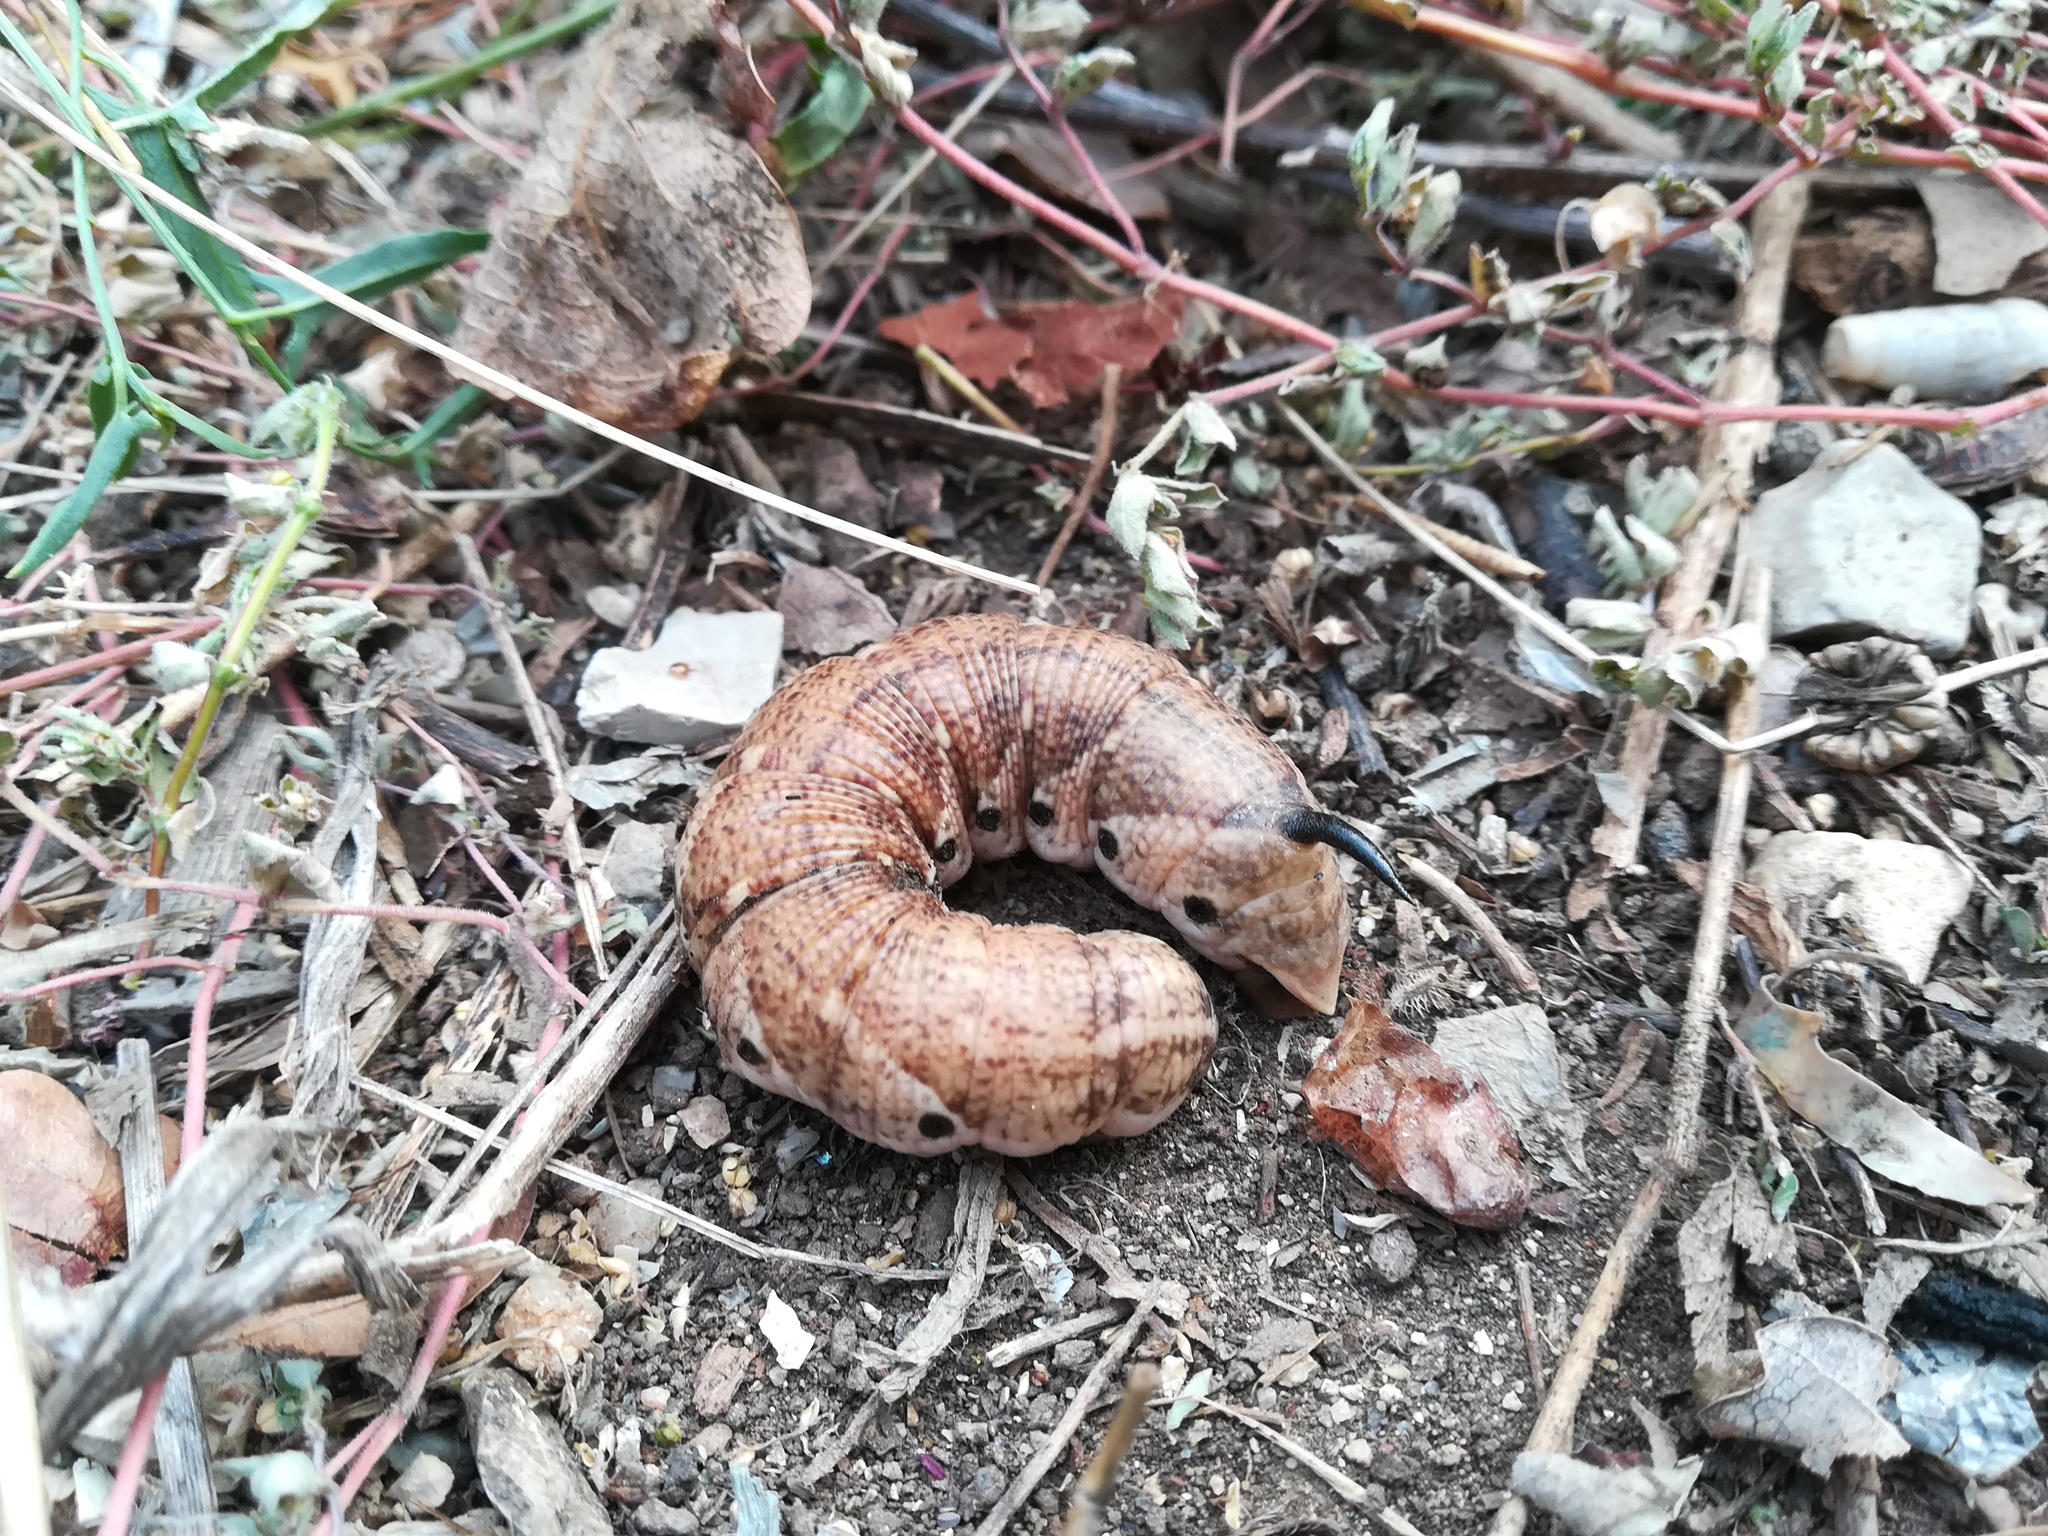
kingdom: Animalia
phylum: Arthropoda
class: Insecta
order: Lepidoptera
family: Sphingidae
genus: Agrius
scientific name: Agrius convolvuli
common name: Convolvulus hawkmoth
